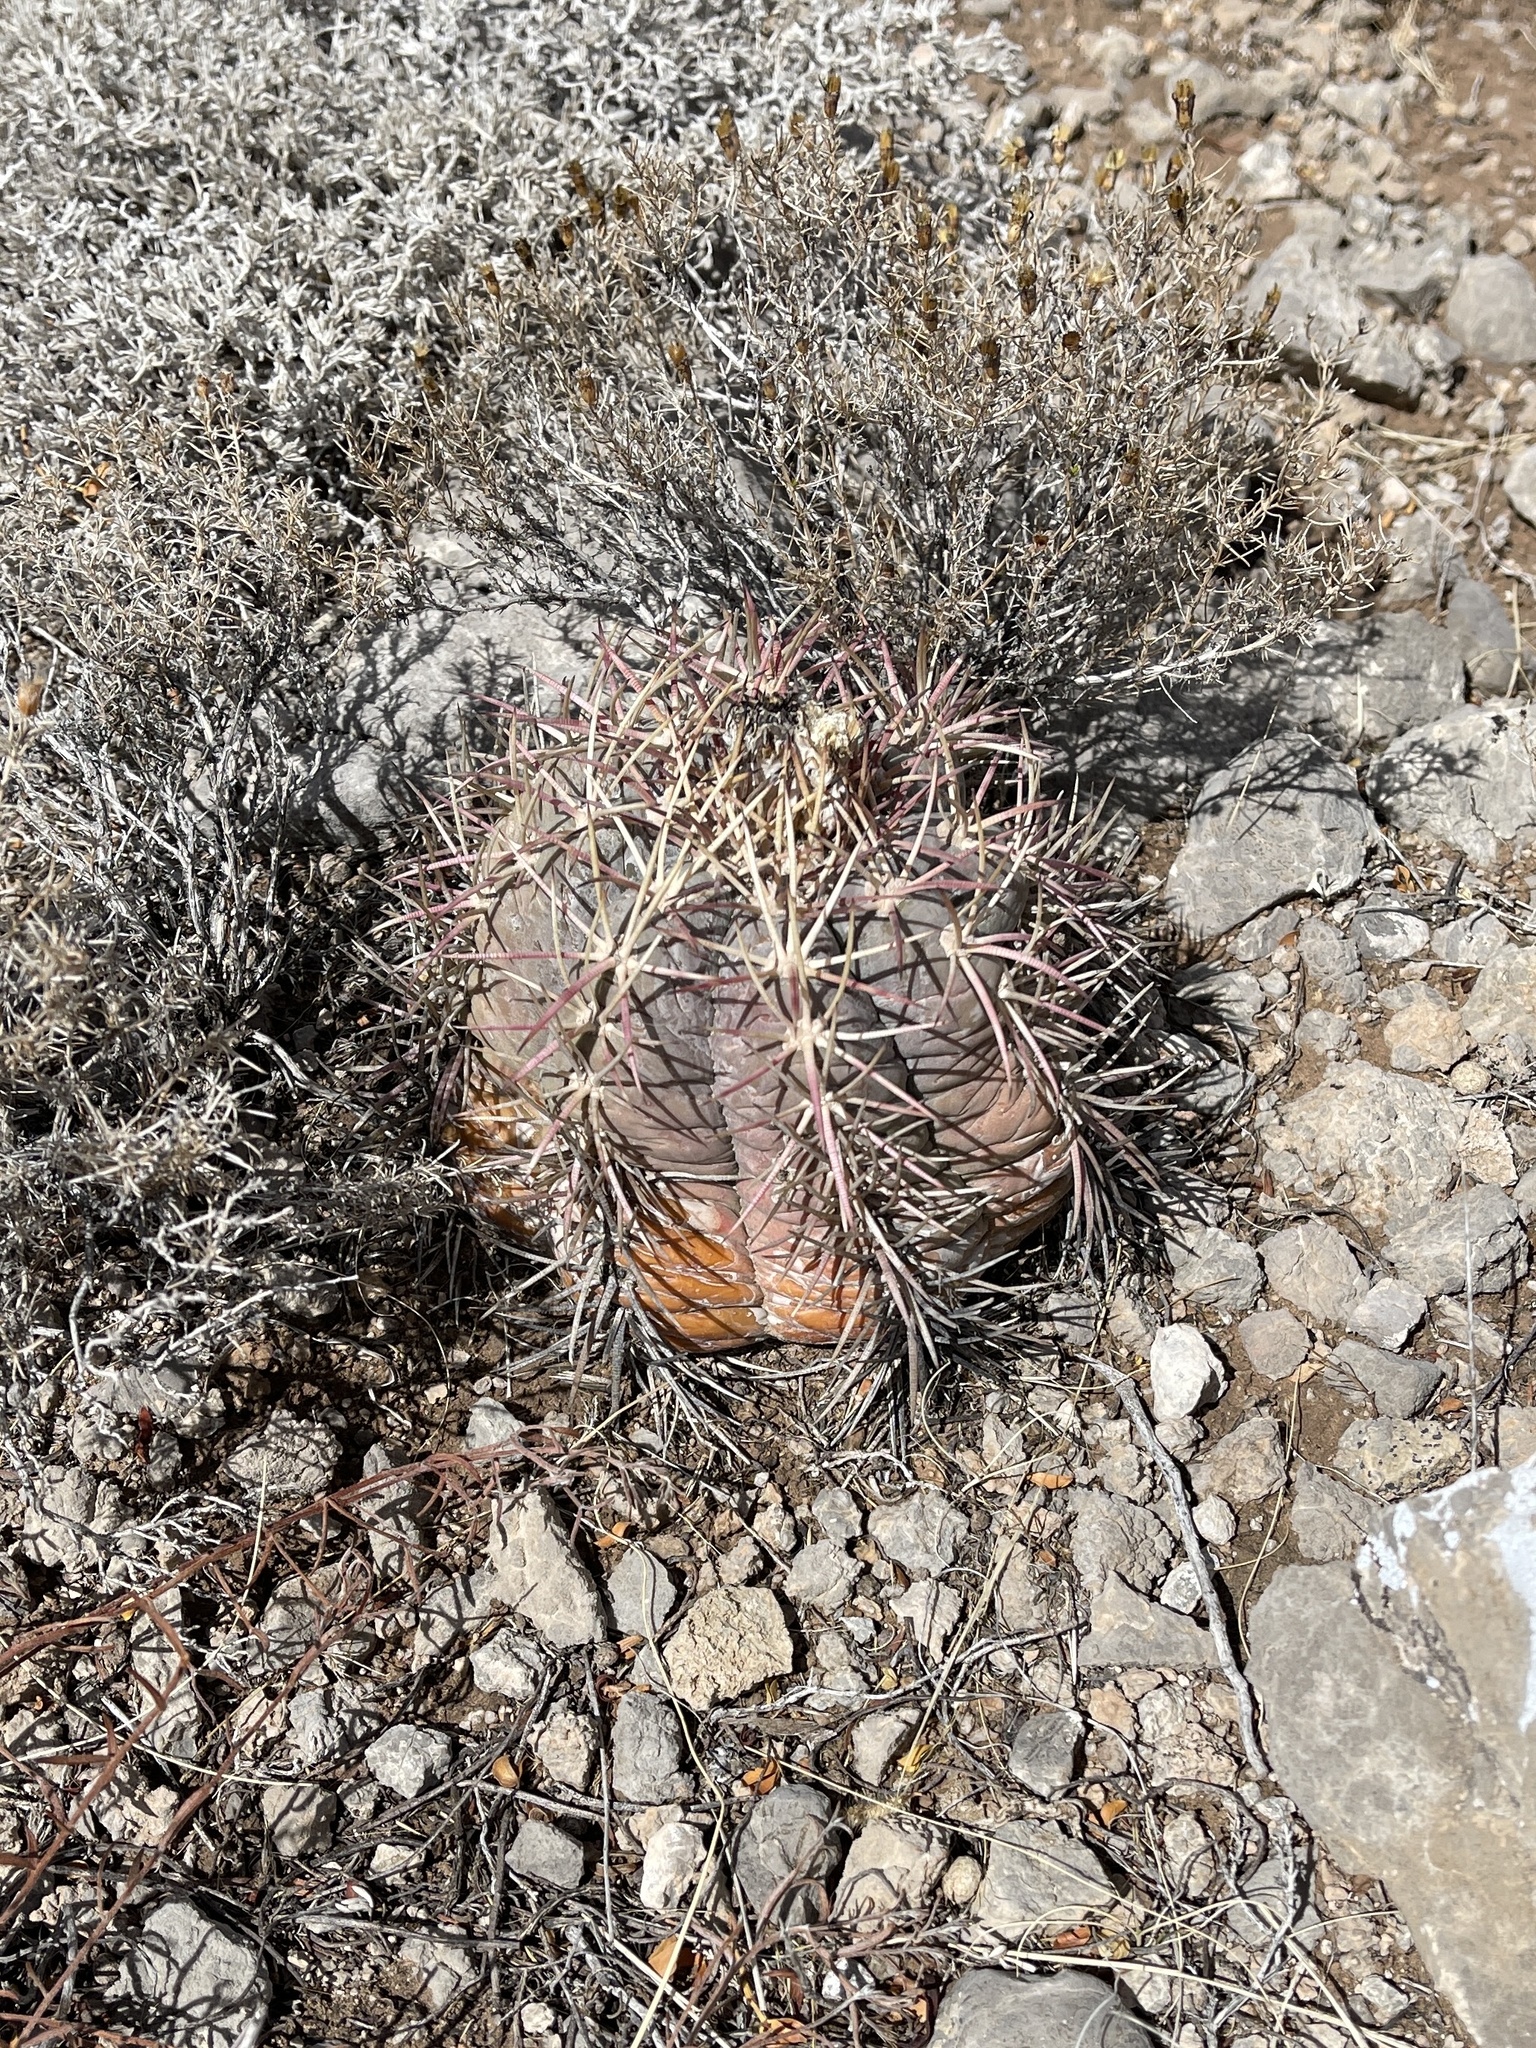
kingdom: Plantae
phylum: Tracheophyta
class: Magnoliopsida
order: Caryophyllales
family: Cactaceae
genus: Echinocactus
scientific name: Echinocactus horizonthalonius
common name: Devilshead
